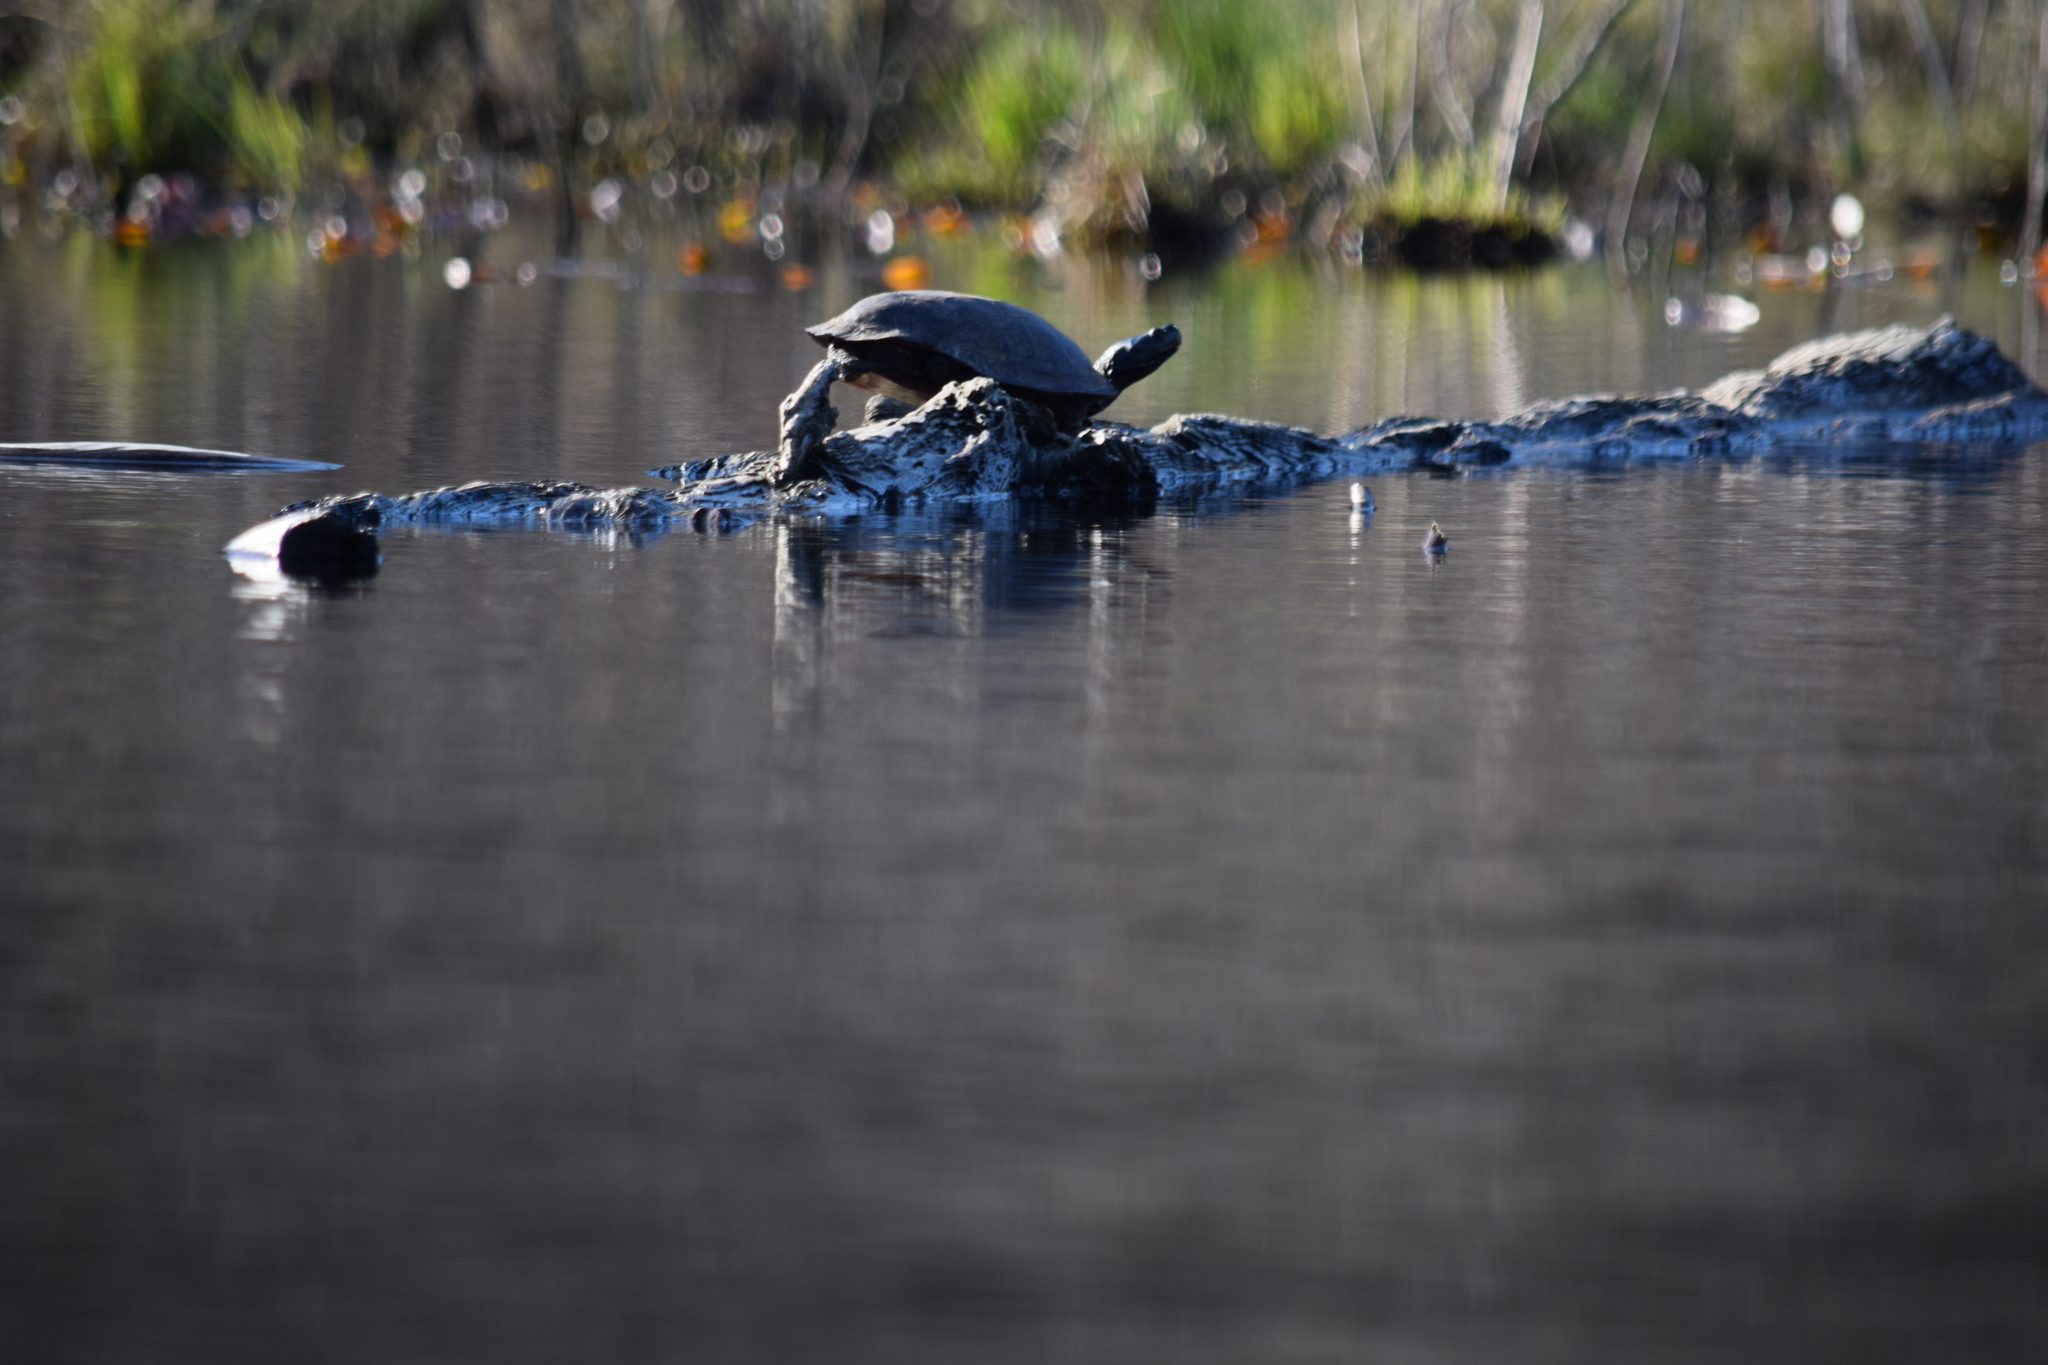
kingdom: Animalia
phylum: Chordata
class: Testudines
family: Emydidae
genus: Pseudemys
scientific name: Pseudemys rubriventris
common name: American red-bellied turtle
